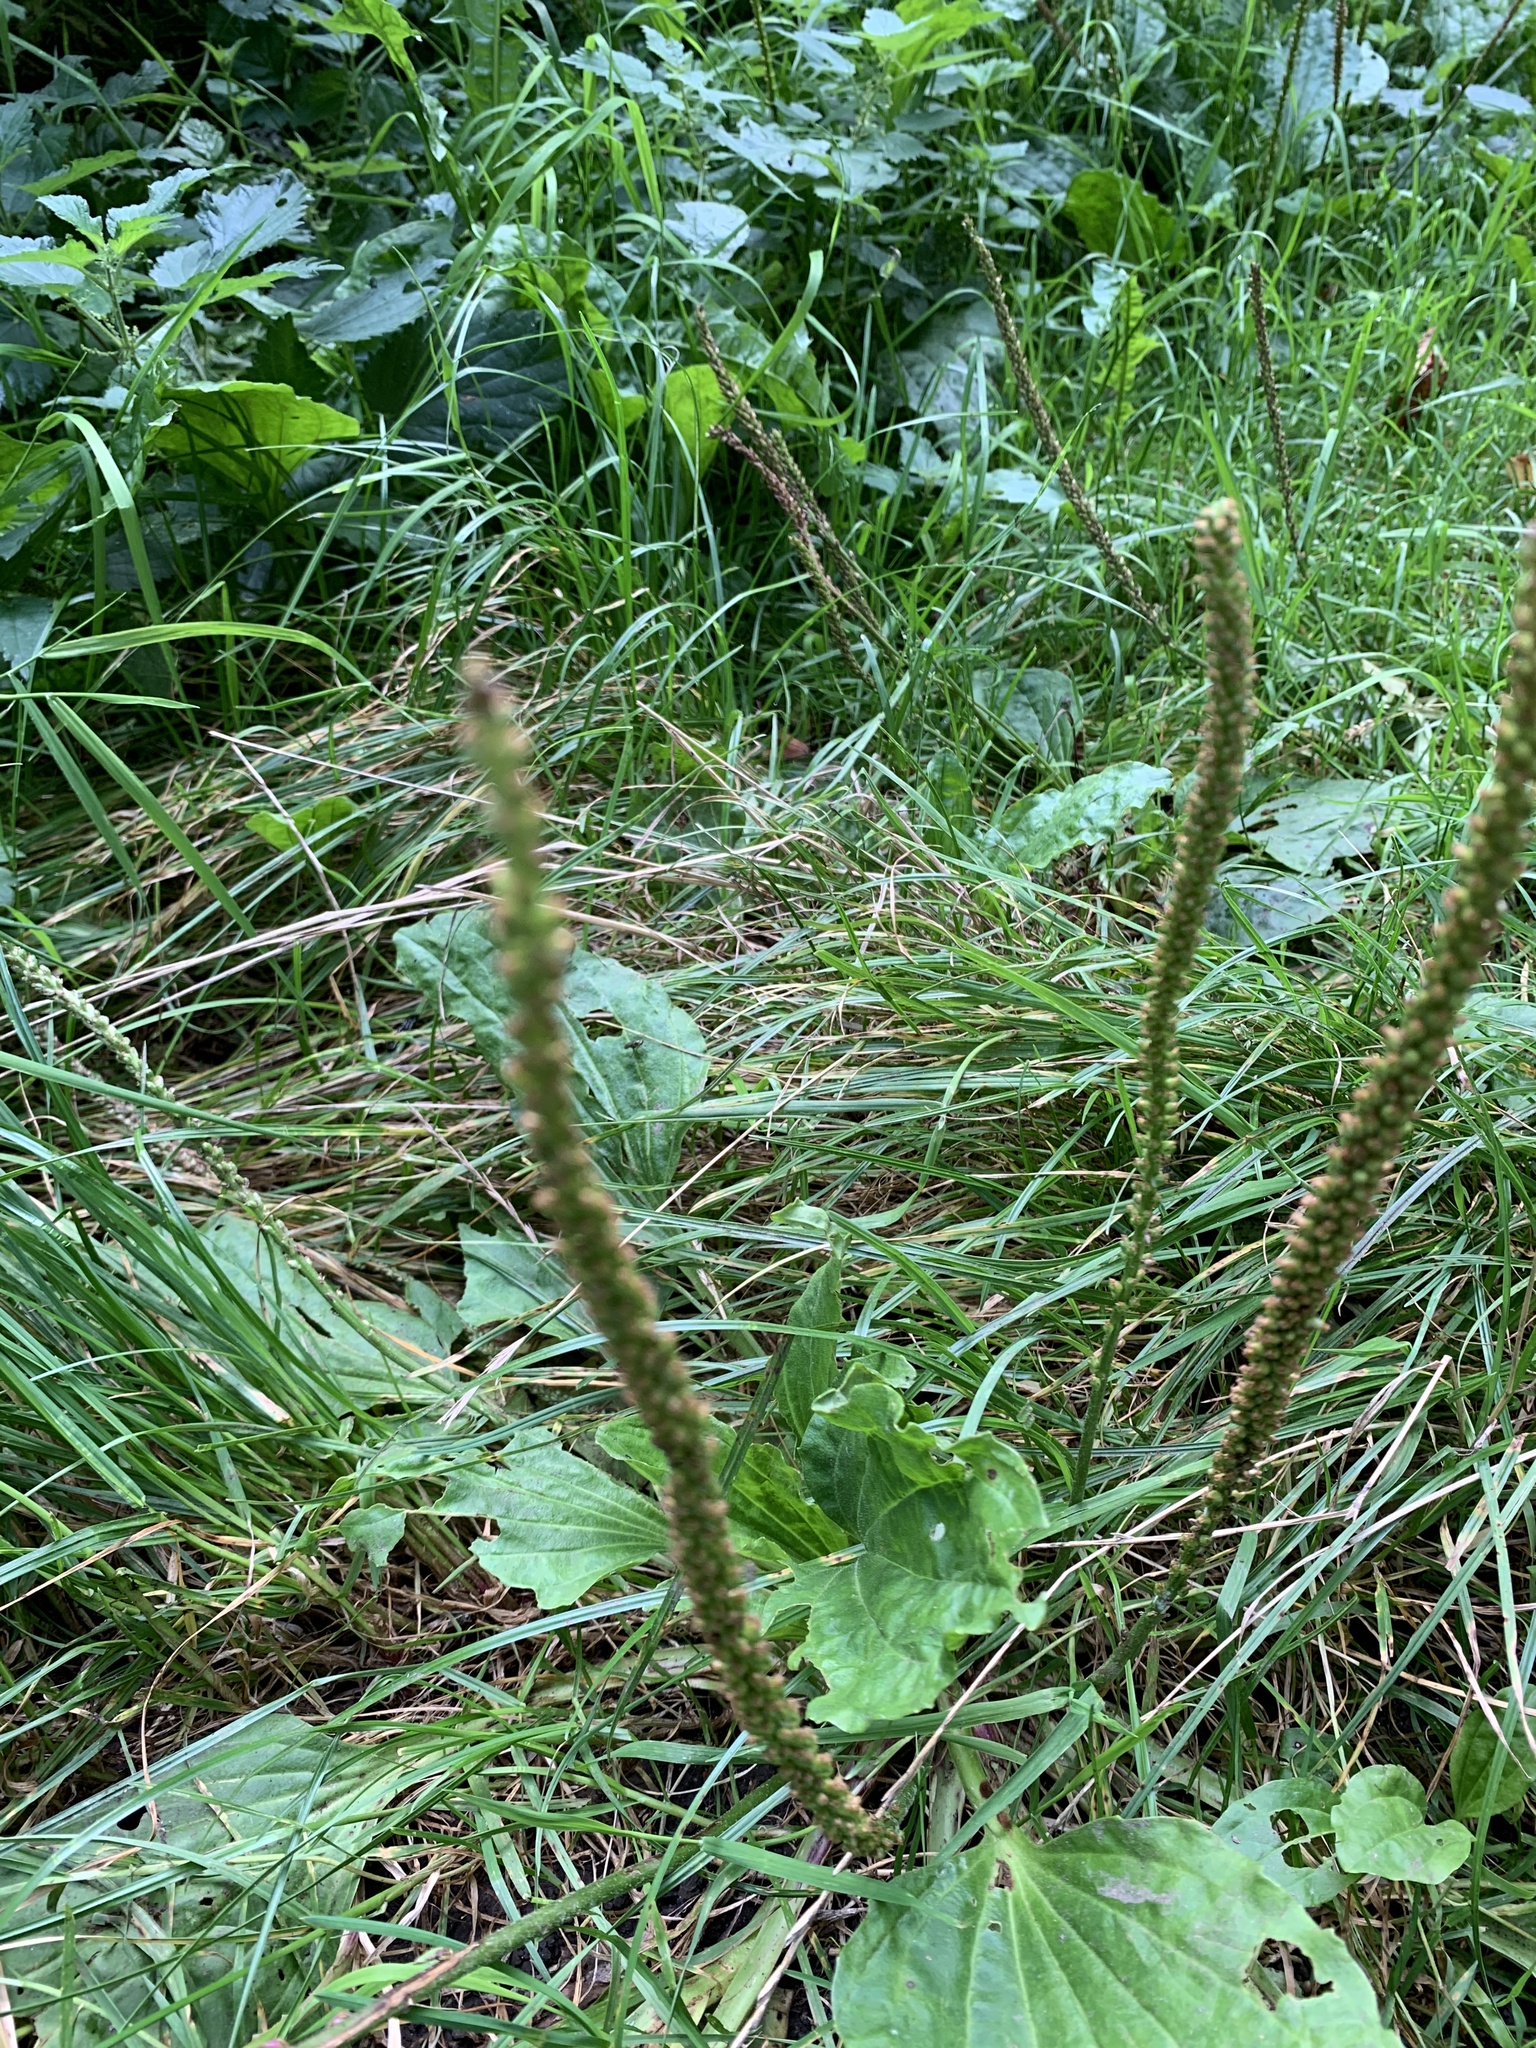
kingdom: Plantae
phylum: Tracheophyta
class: Magnoliopsida
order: Lamiales
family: Plantaginaceae
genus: Plantago
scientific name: Plantago major
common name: Common plantain
